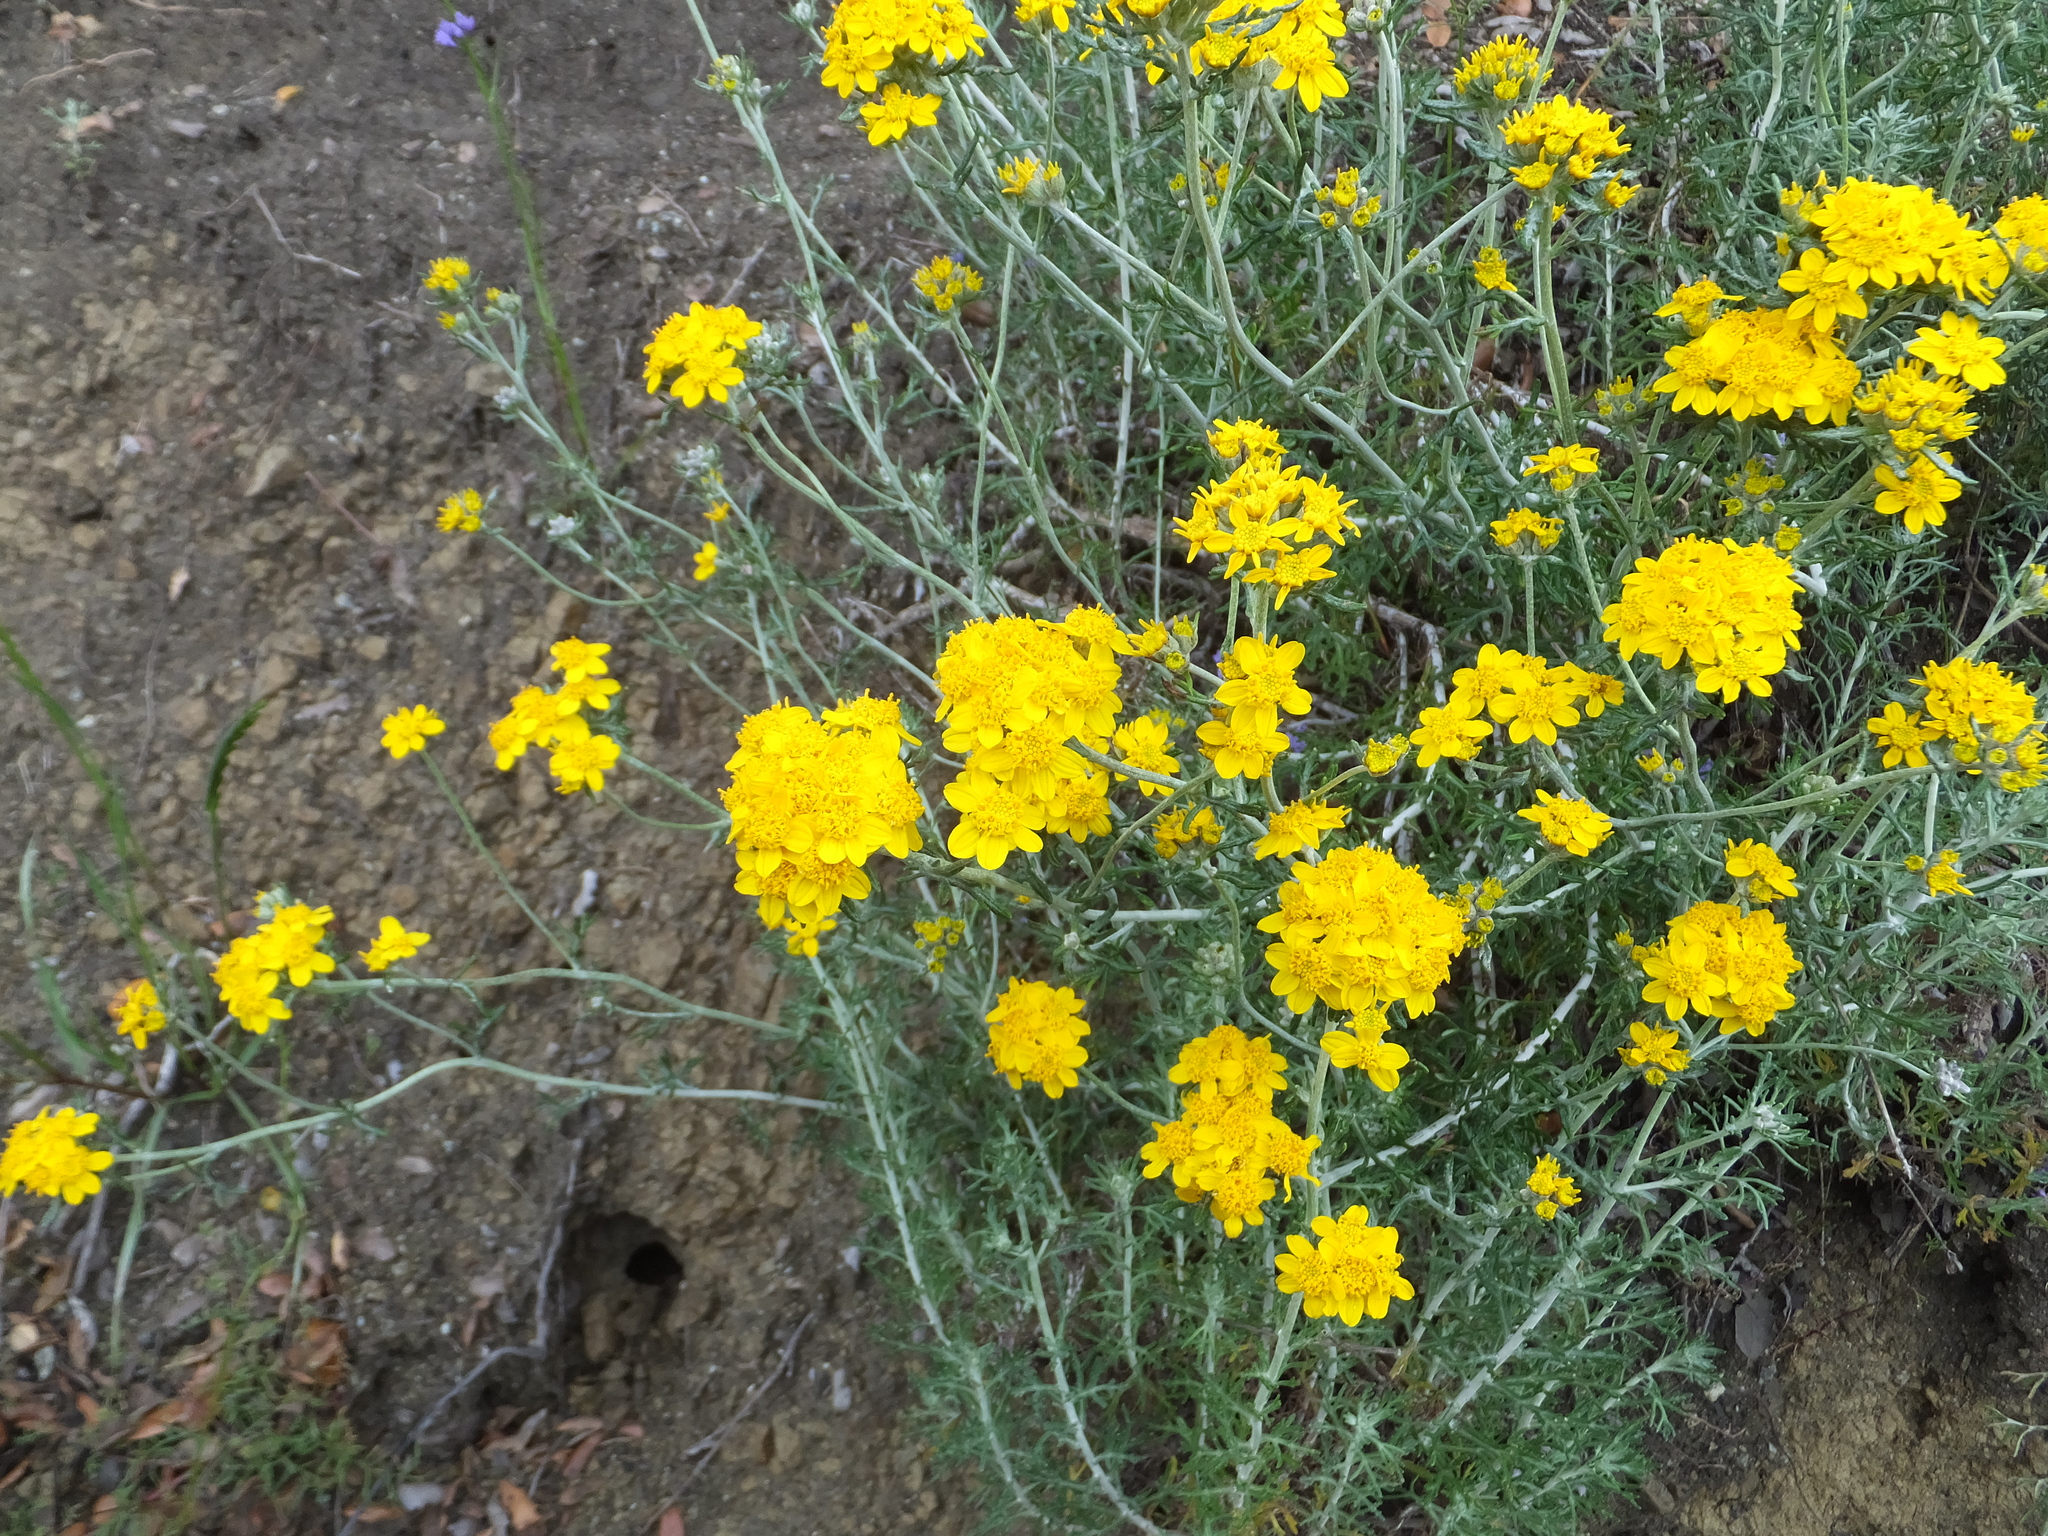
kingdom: Plantae
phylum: Tracheophyta
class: Magnoliopsida
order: Asterales
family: Asteraceae
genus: Eriophyllum
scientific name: Eriophyllum confertiflorum
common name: Golden-yarrow
